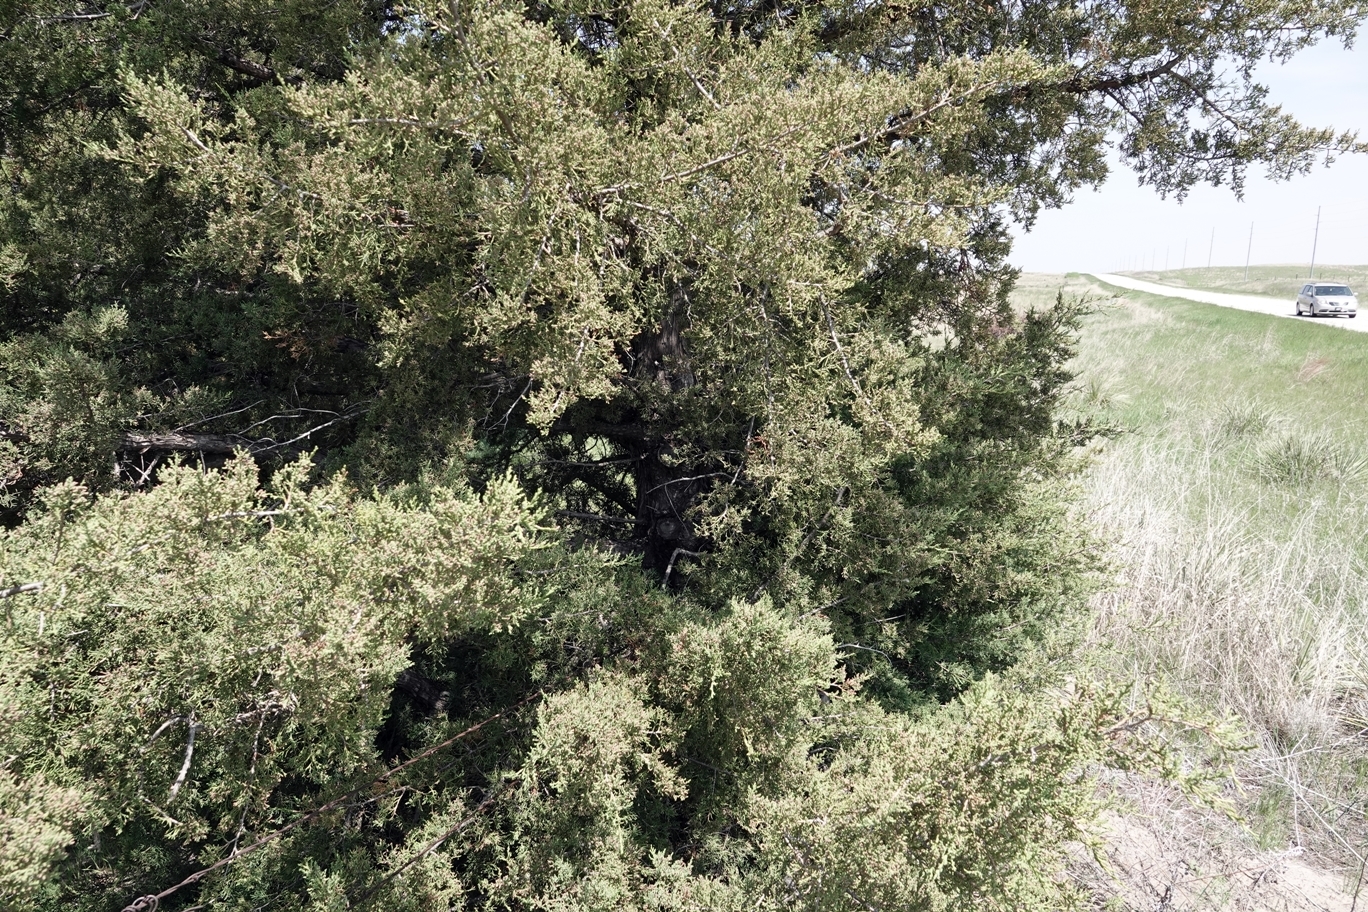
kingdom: Plantae
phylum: Tracheophyta
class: Pinopsida
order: Pinales
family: Cupressaceae
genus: Juniperus
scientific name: Juniperus virginiana
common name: Red juniper
